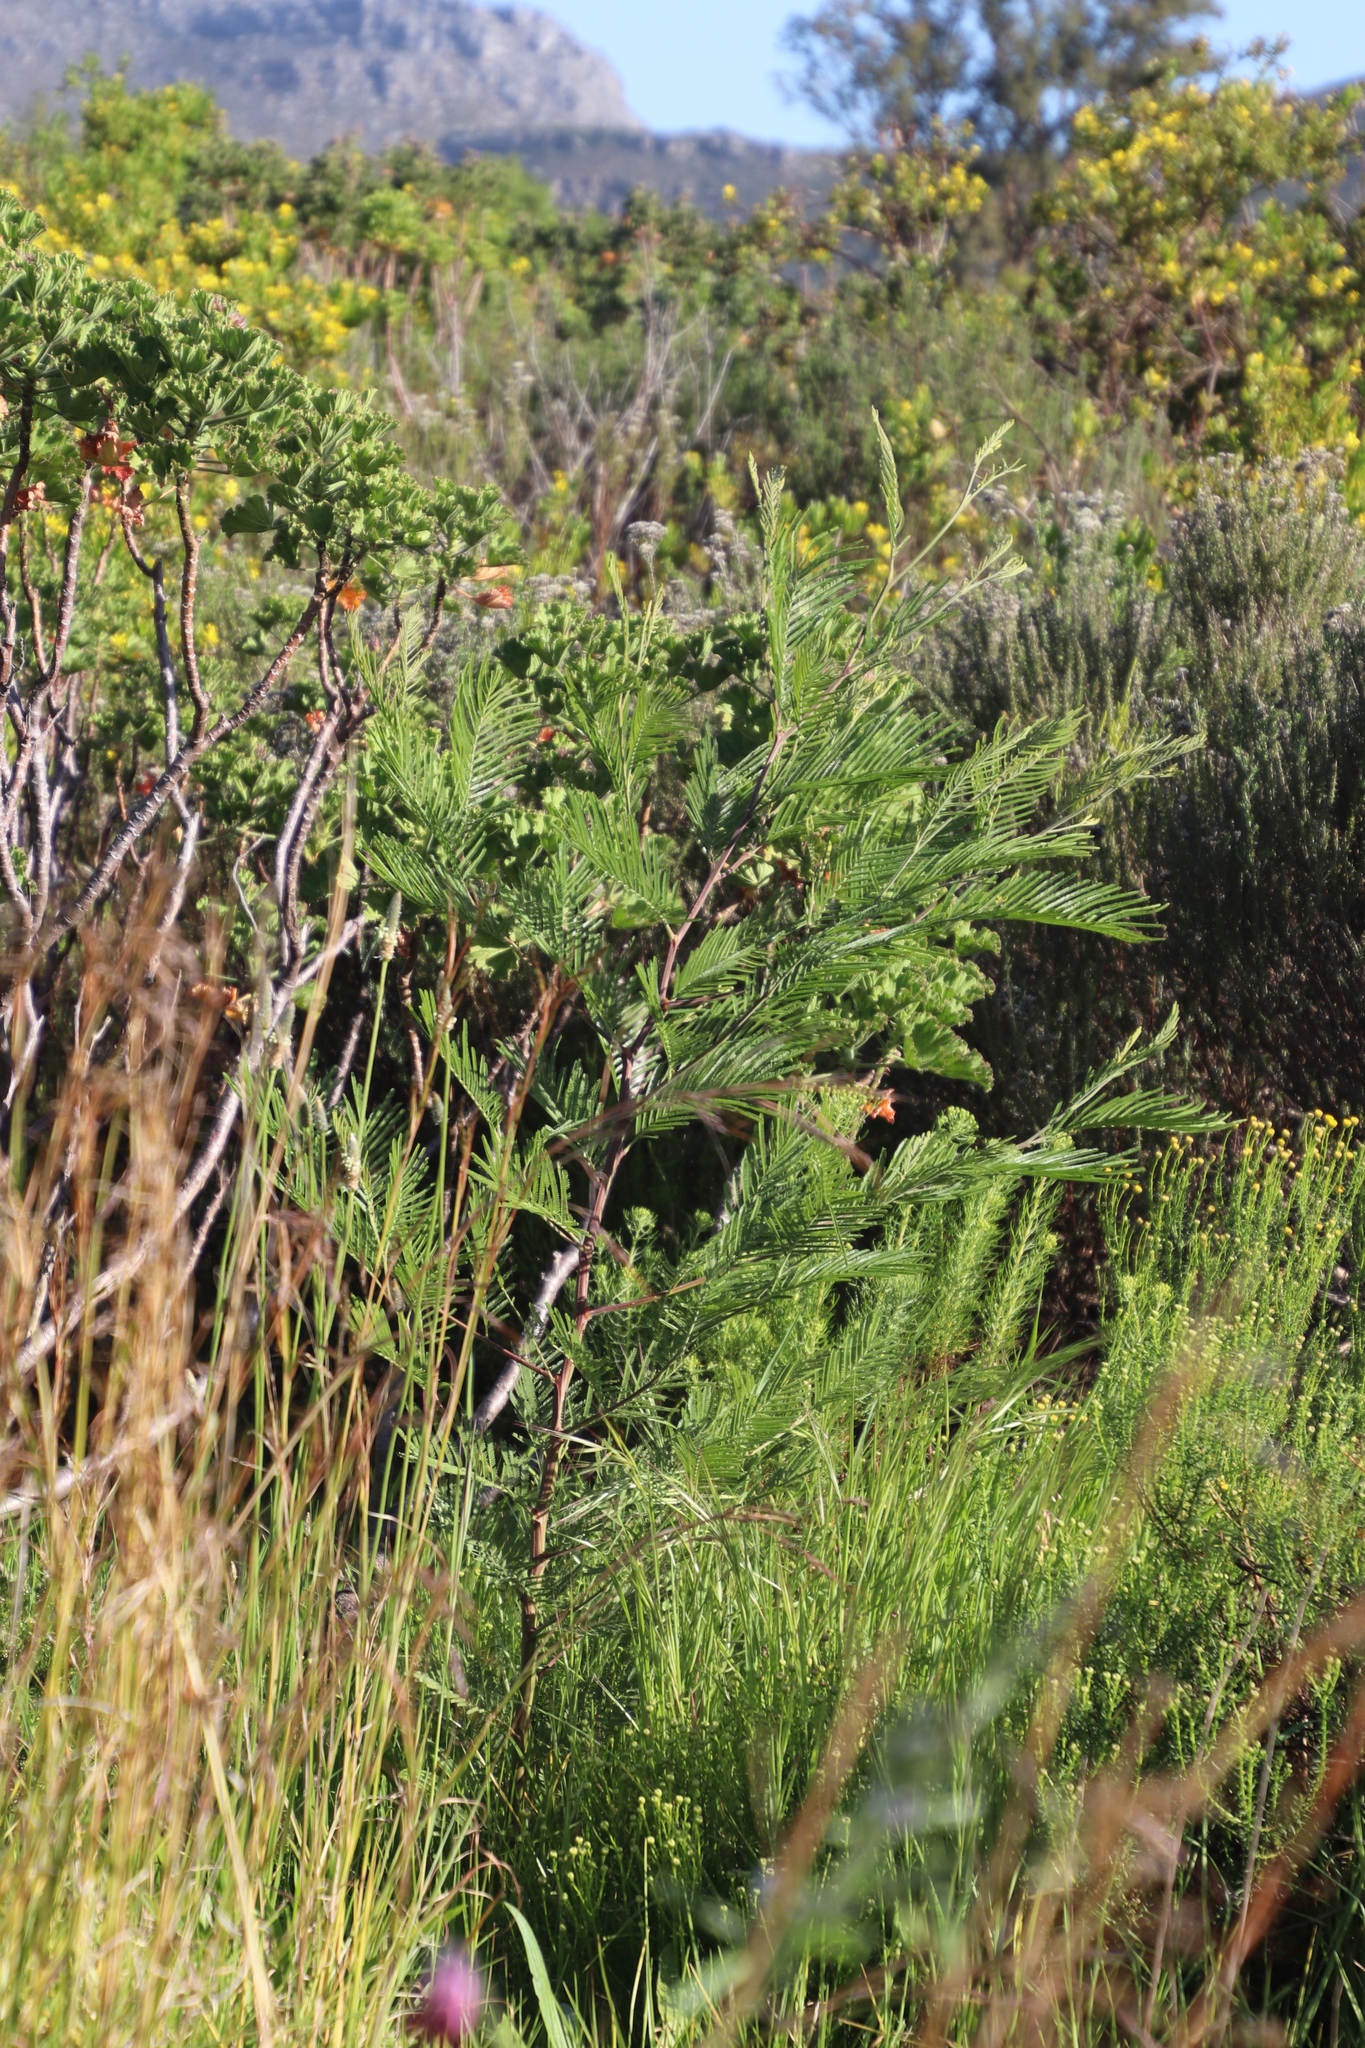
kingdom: Plantae
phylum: Tracheophyta
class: Magnoliopsida
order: Fabales
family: Fabaceae
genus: Acacia
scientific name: Acacia mearnsii
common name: Black wattle
